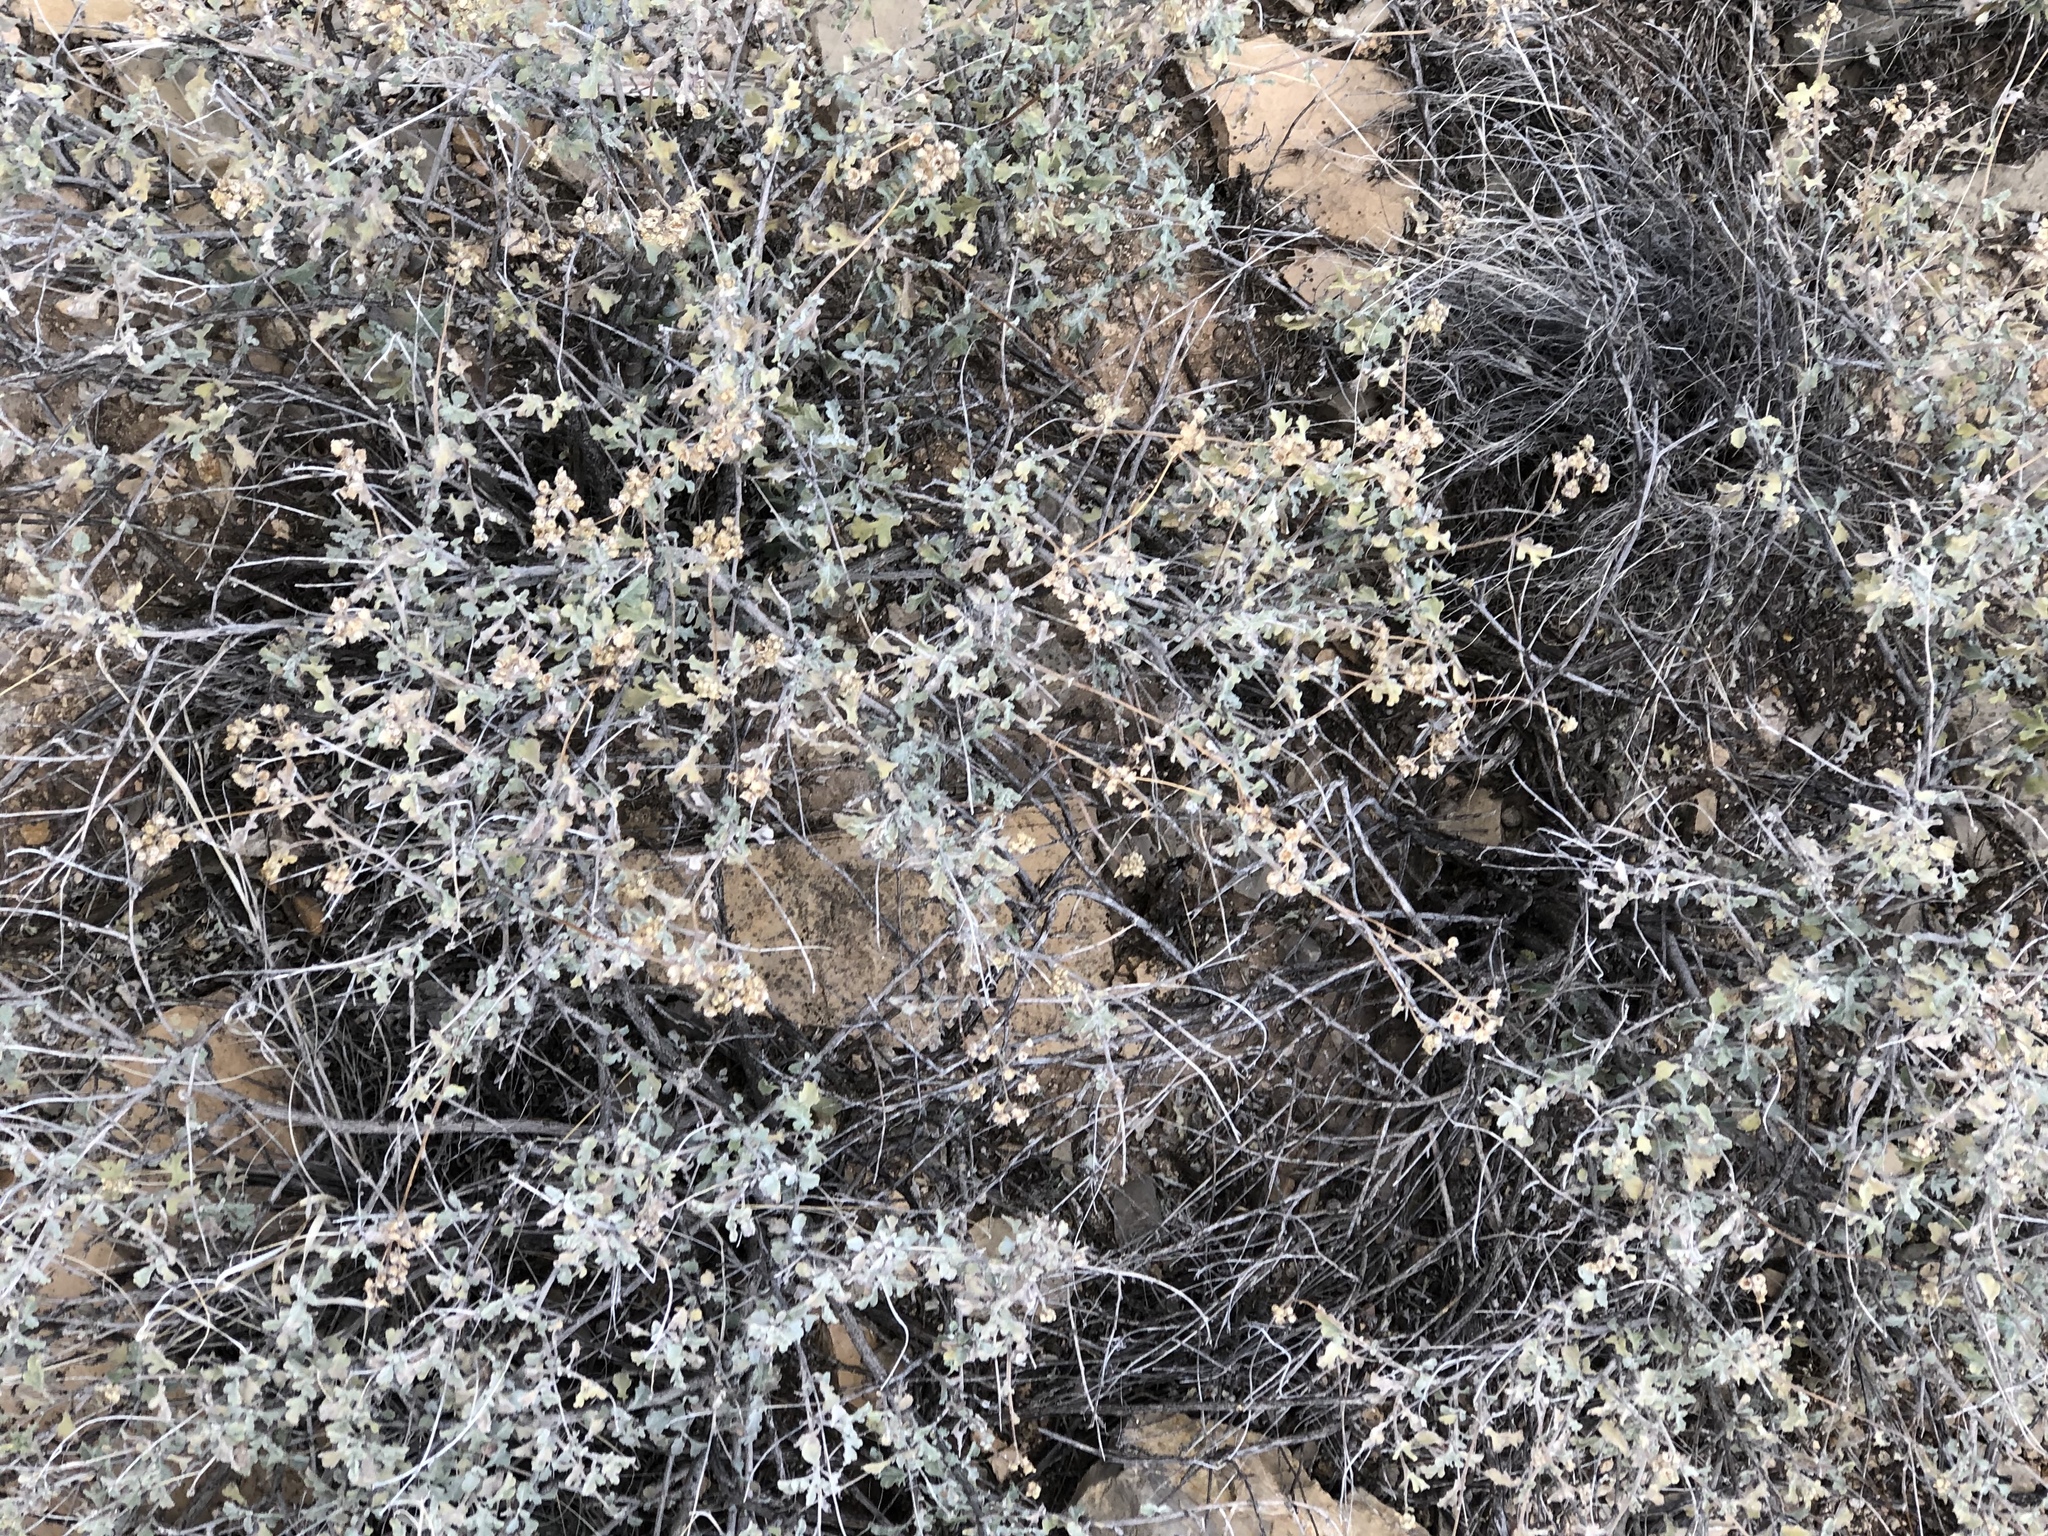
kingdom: Plantae
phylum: Tracheophyta
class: Magnoliopsida
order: Asterales
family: Asteraceae
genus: Parthenium
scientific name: Parthenium incanum
